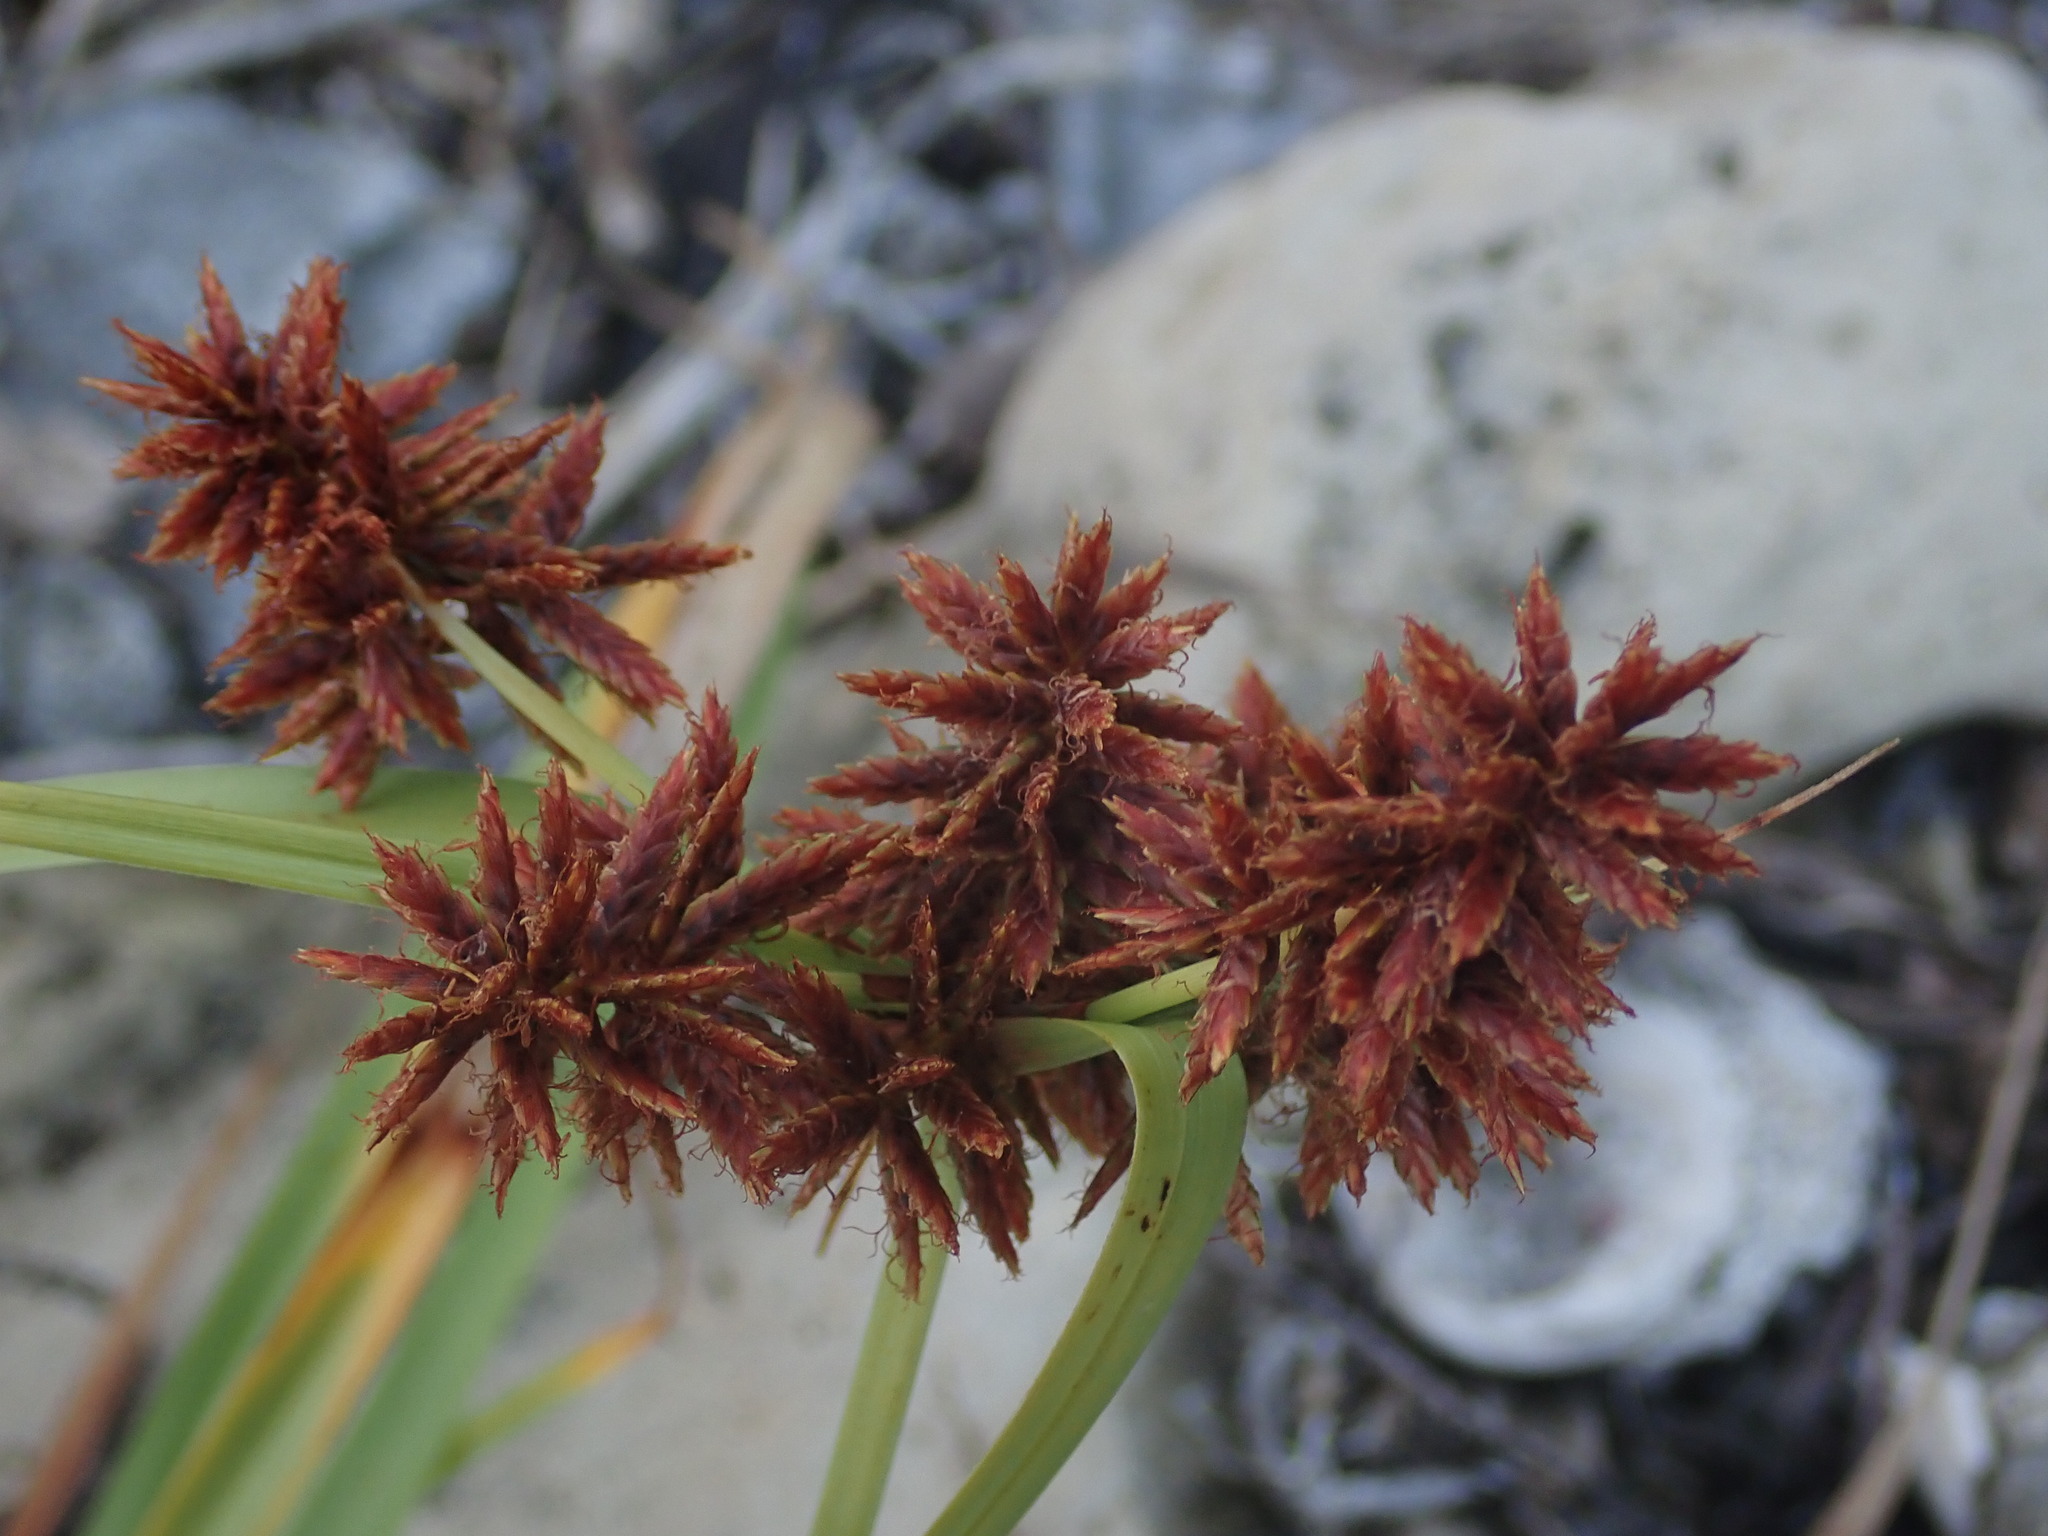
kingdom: Plantae
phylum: Tracheophyta
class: Liliopsida
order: Poales
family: Cyperaceae
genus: Cyperus
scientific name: Cyperus planifolius
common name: Bullgrass
